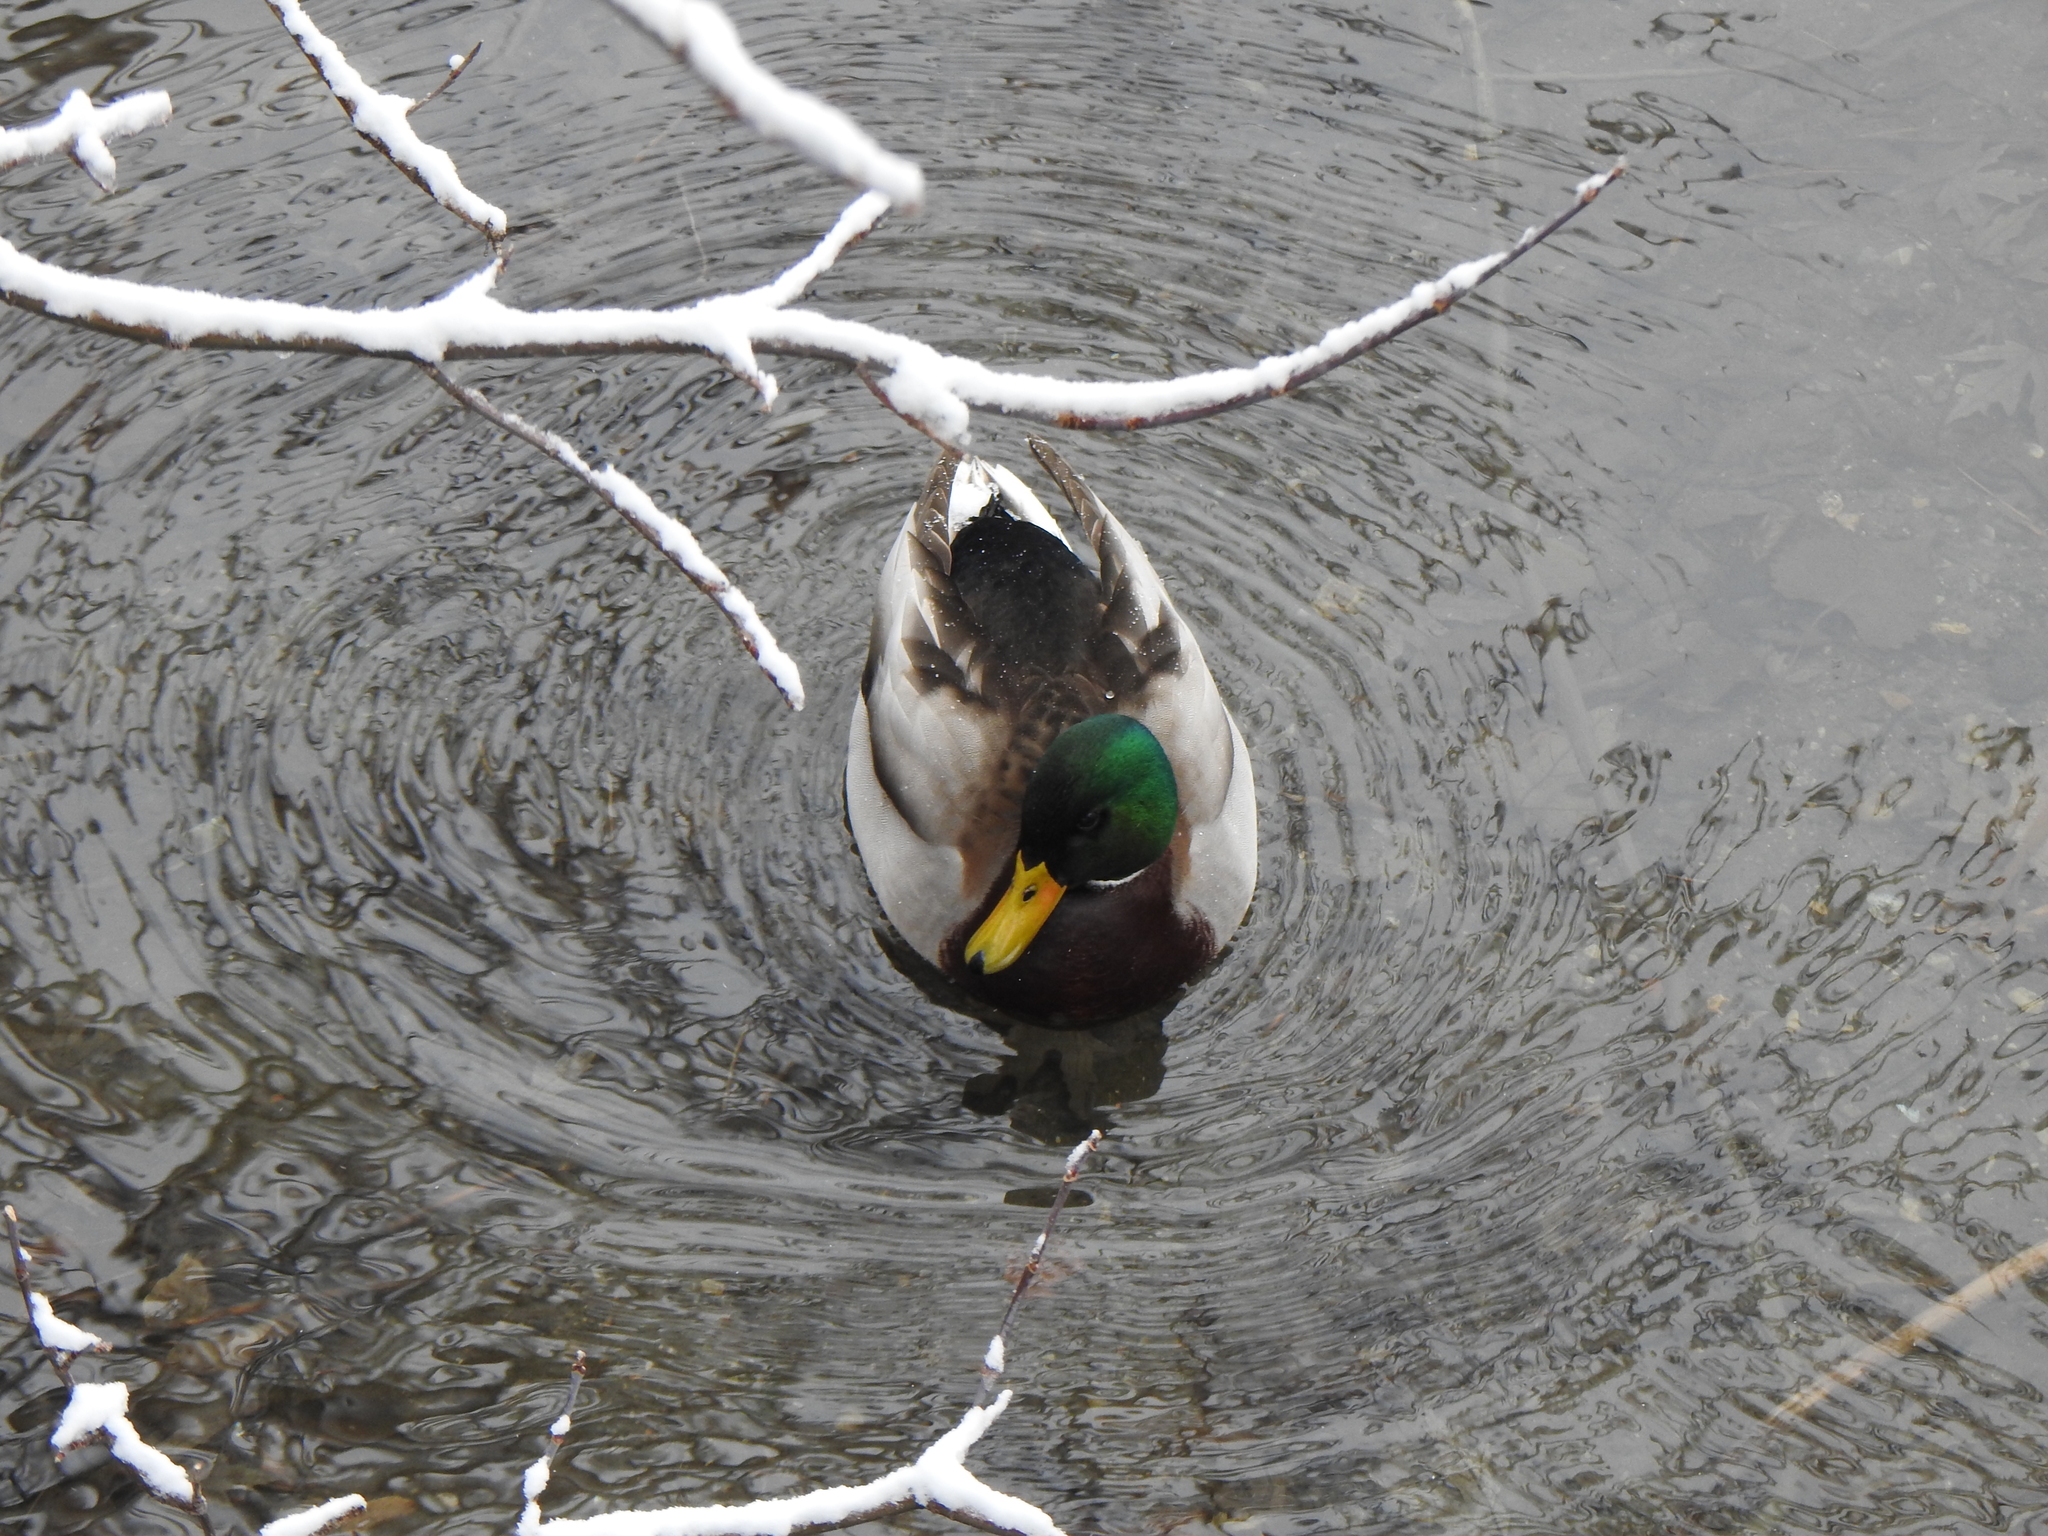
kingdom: Animalia
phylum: Chordata
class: Aves
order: Anseriformes
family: Anatidae
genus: Anas
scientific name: Anas platyrhynchos
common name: Mallard
